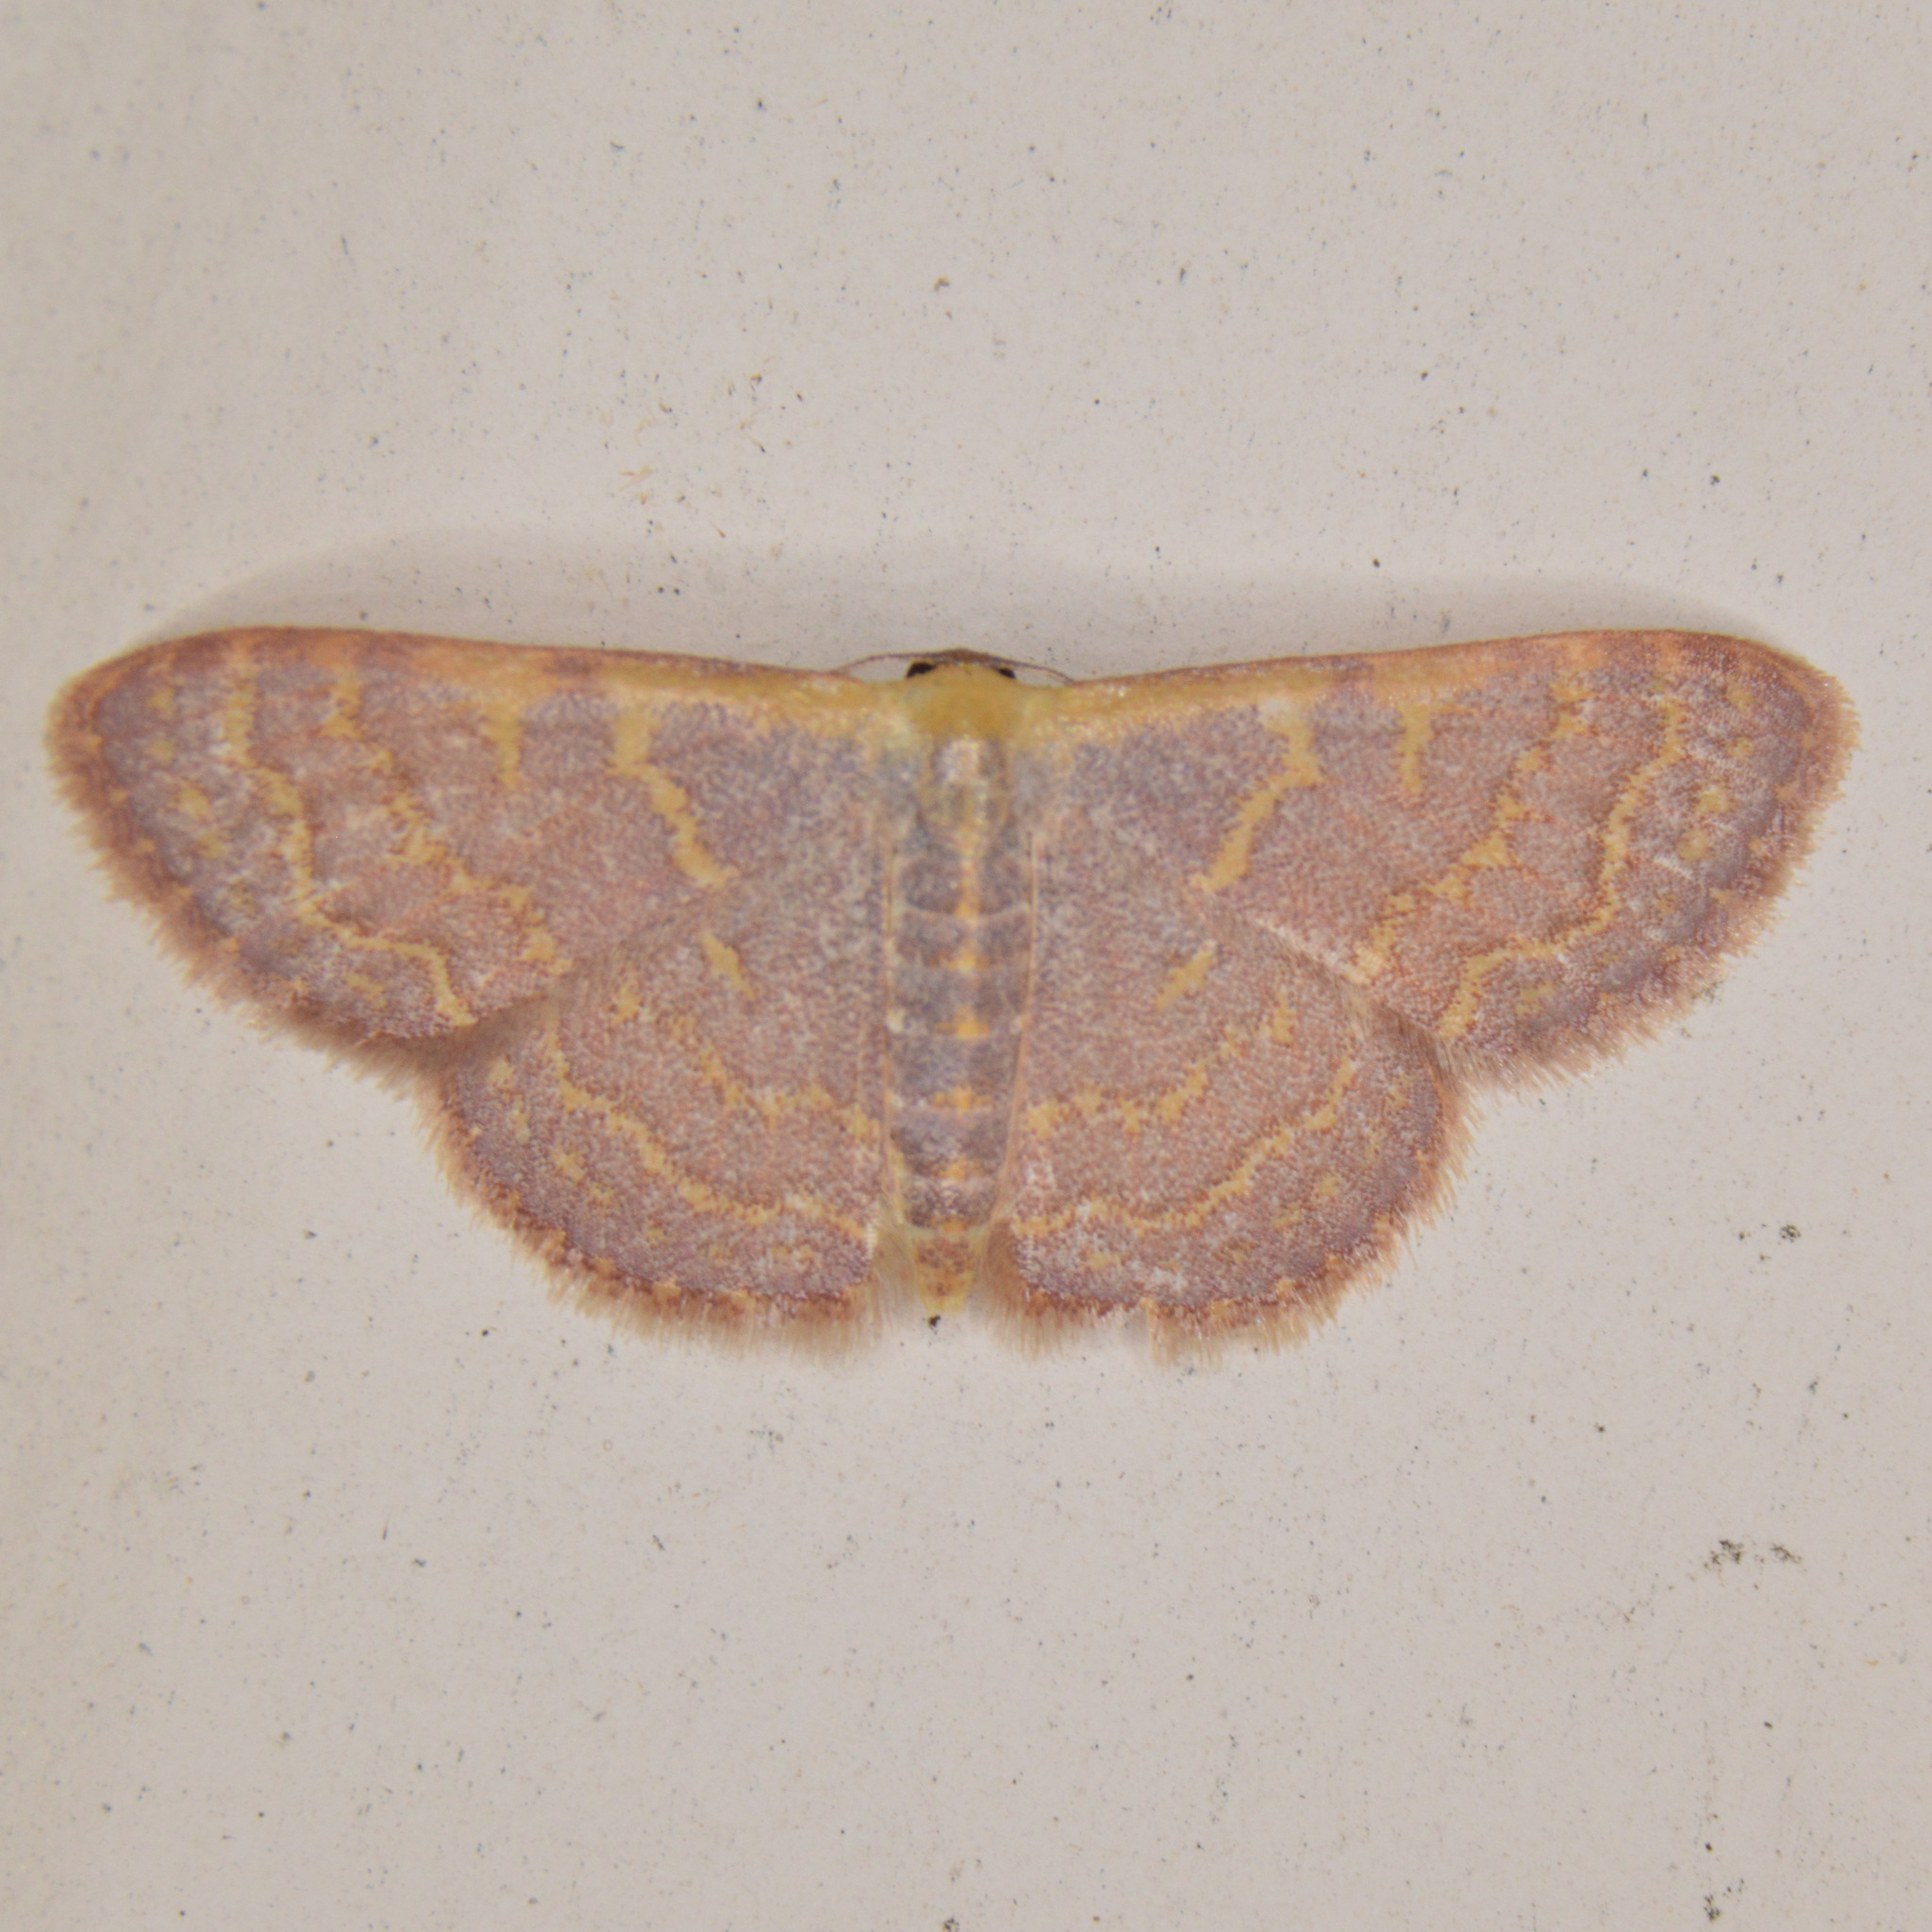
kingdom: Animalia
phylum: Arthropoda
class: Insecta
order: Lepidoptera
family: Geometridae
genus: Leptostales
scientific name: Leptostales pannaria
